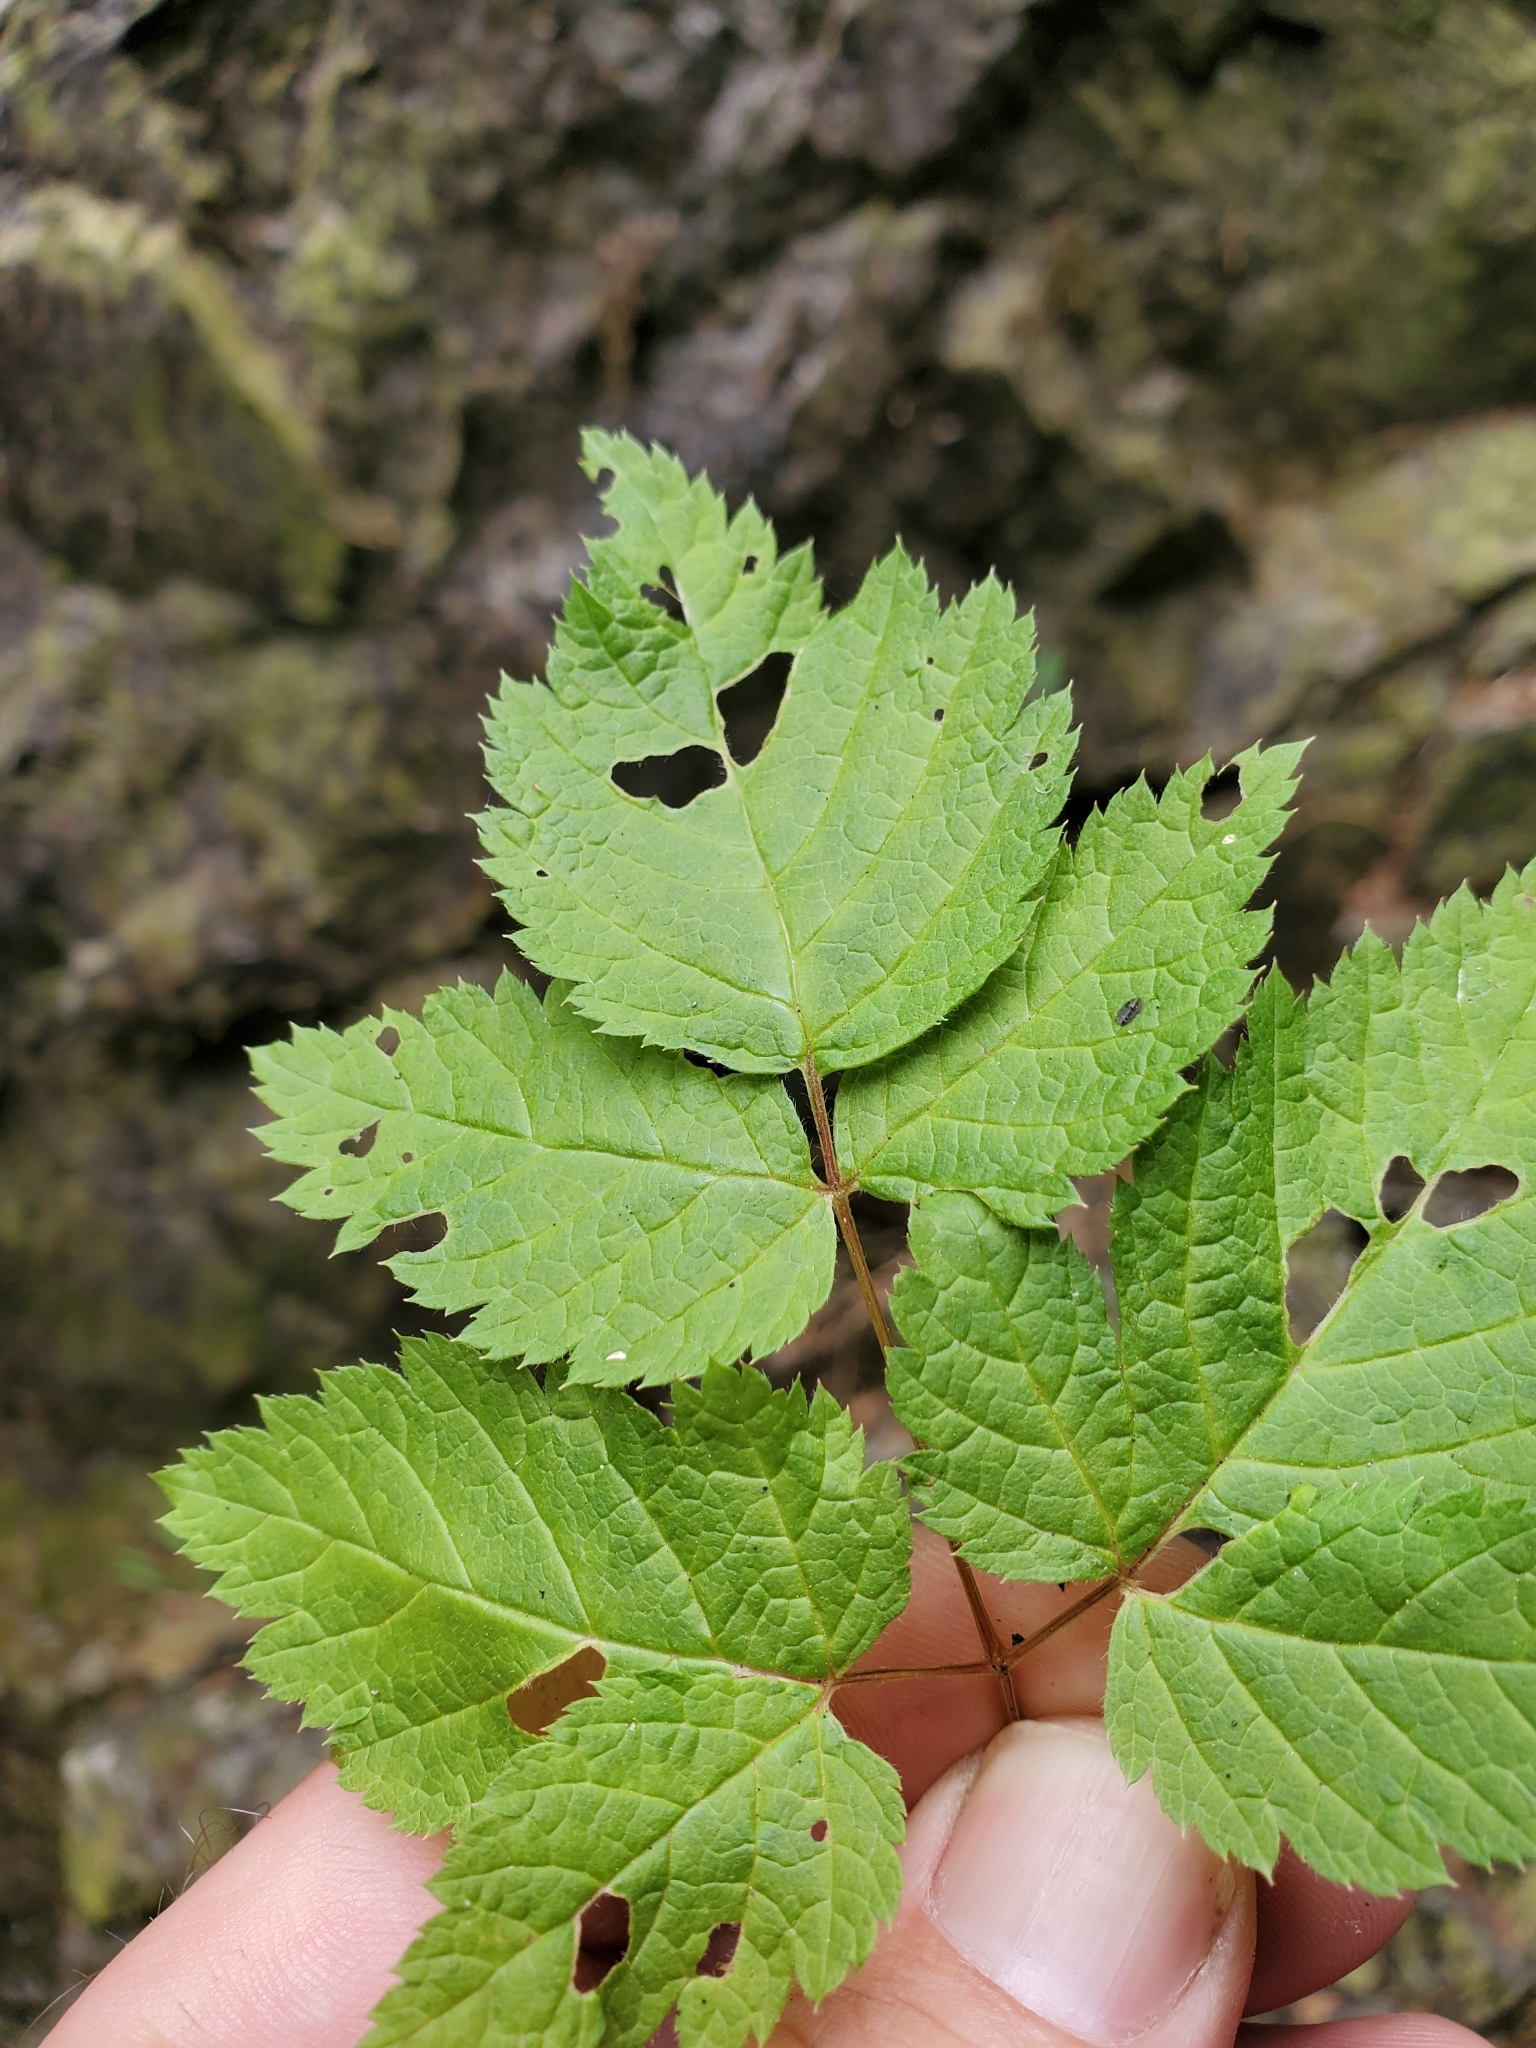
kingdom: Plantae
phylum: Tracheophyta
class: Magnoliopsida
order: Rosales
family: Rosaceae
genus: Rubus
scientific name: Rubus spectabilis
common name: Salmonberry
